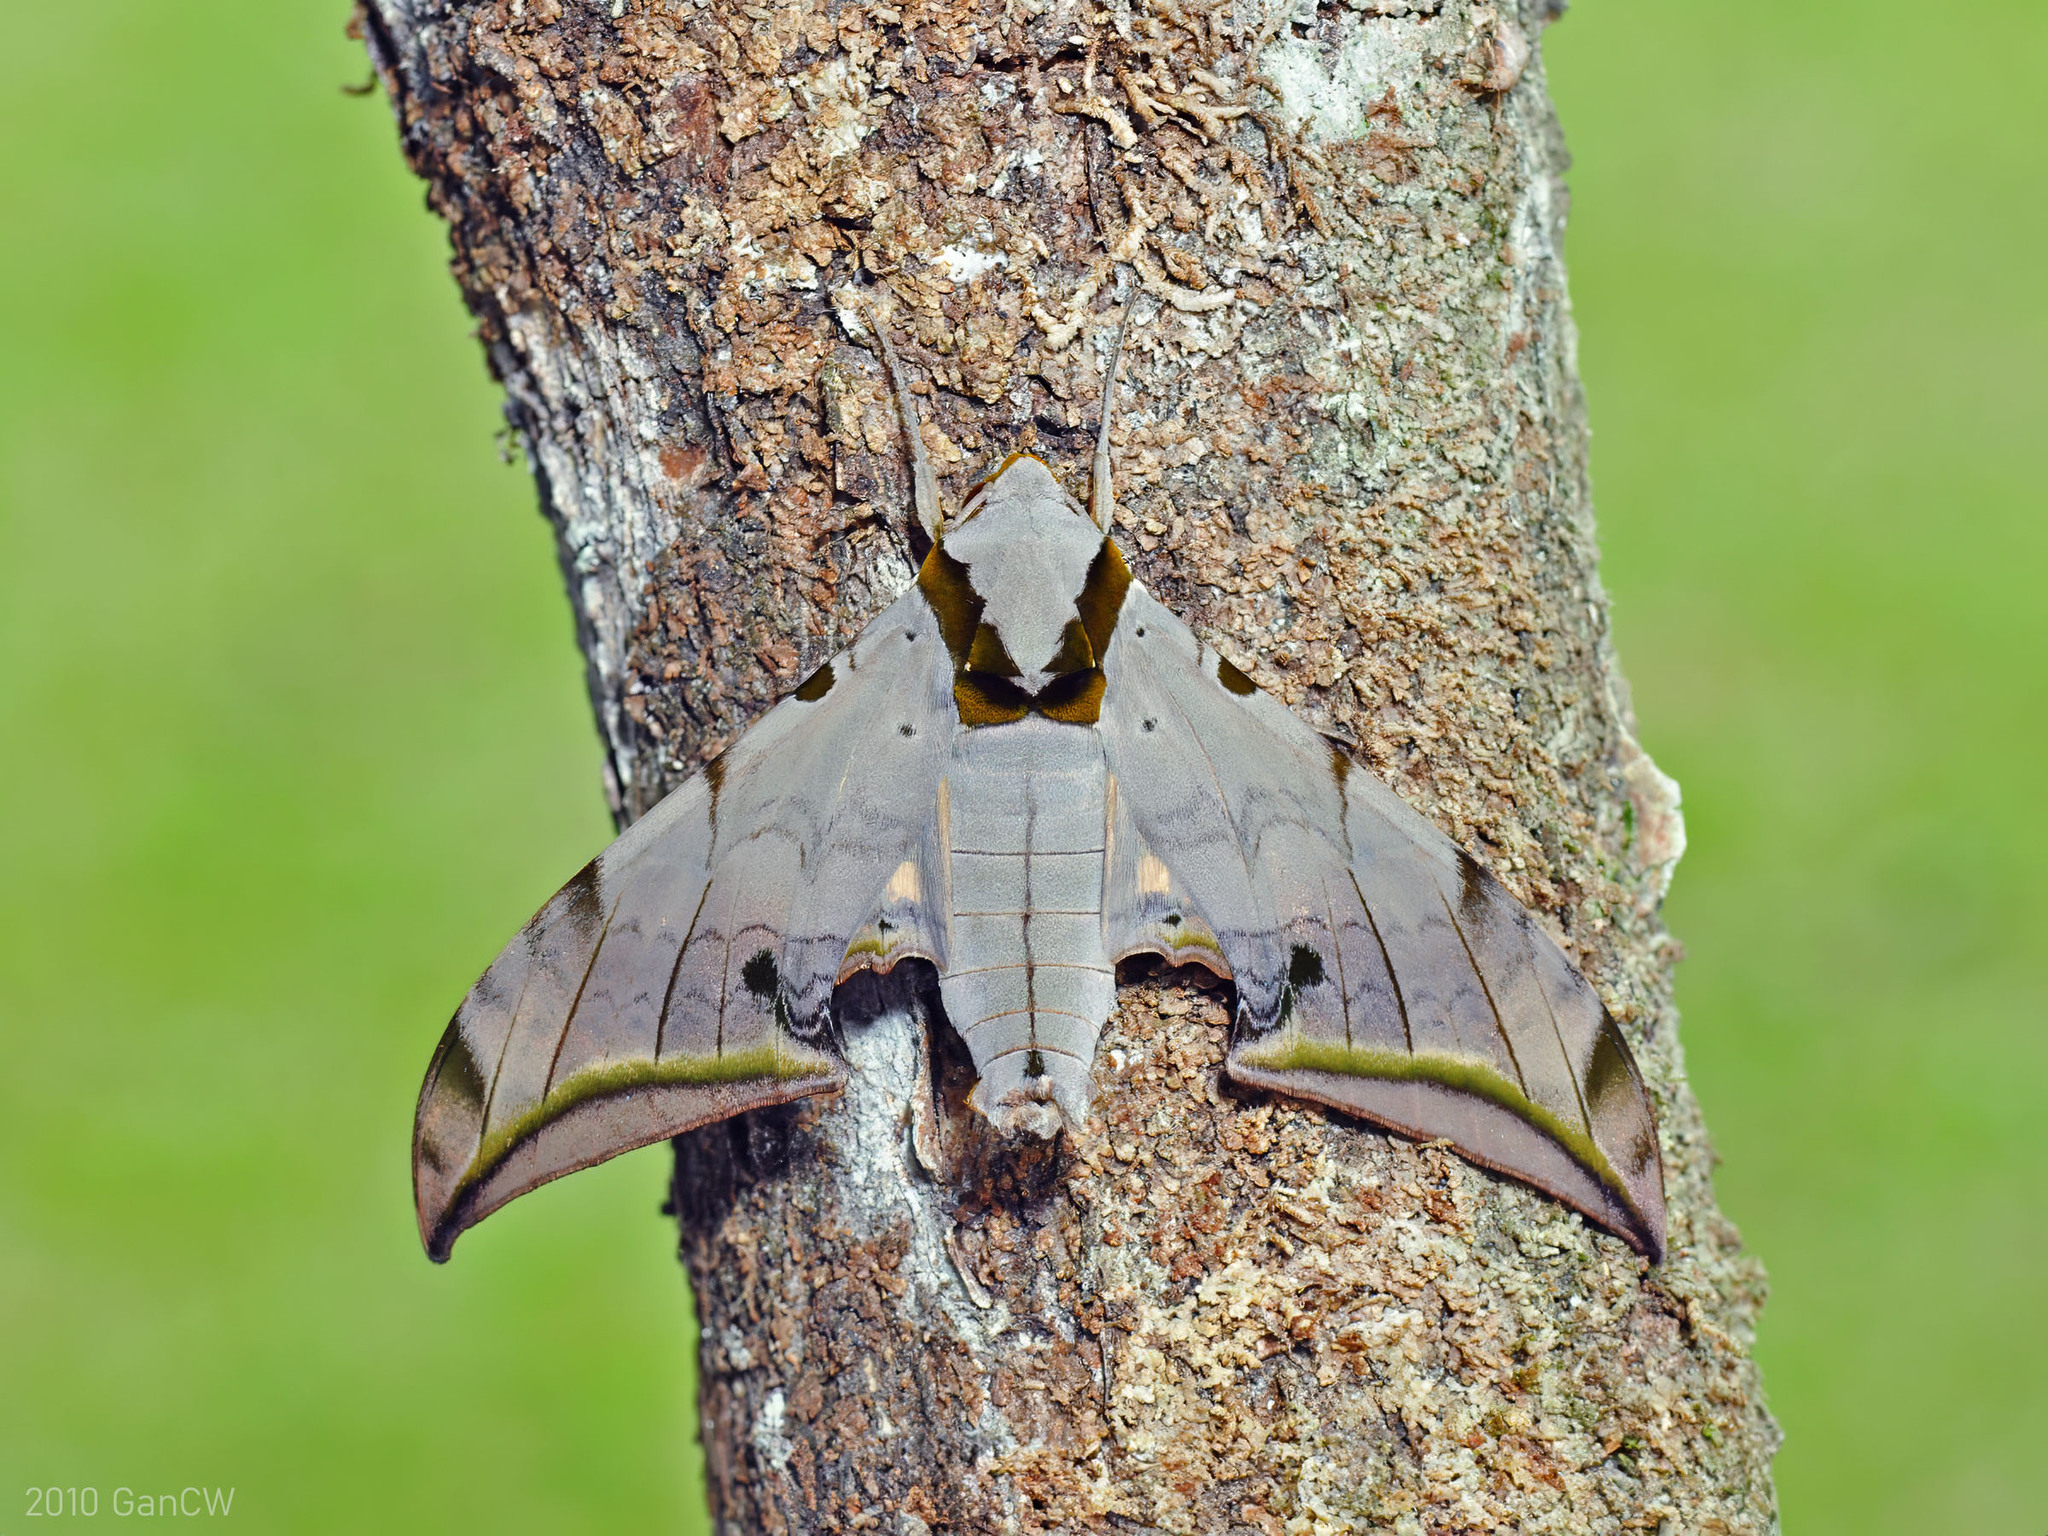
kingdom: Animalia
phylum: Arthropoda
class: Insecta
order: Lepidoptera
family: Sphingidae
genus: Ambulyx
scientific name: Ambulyx sericeipennis
